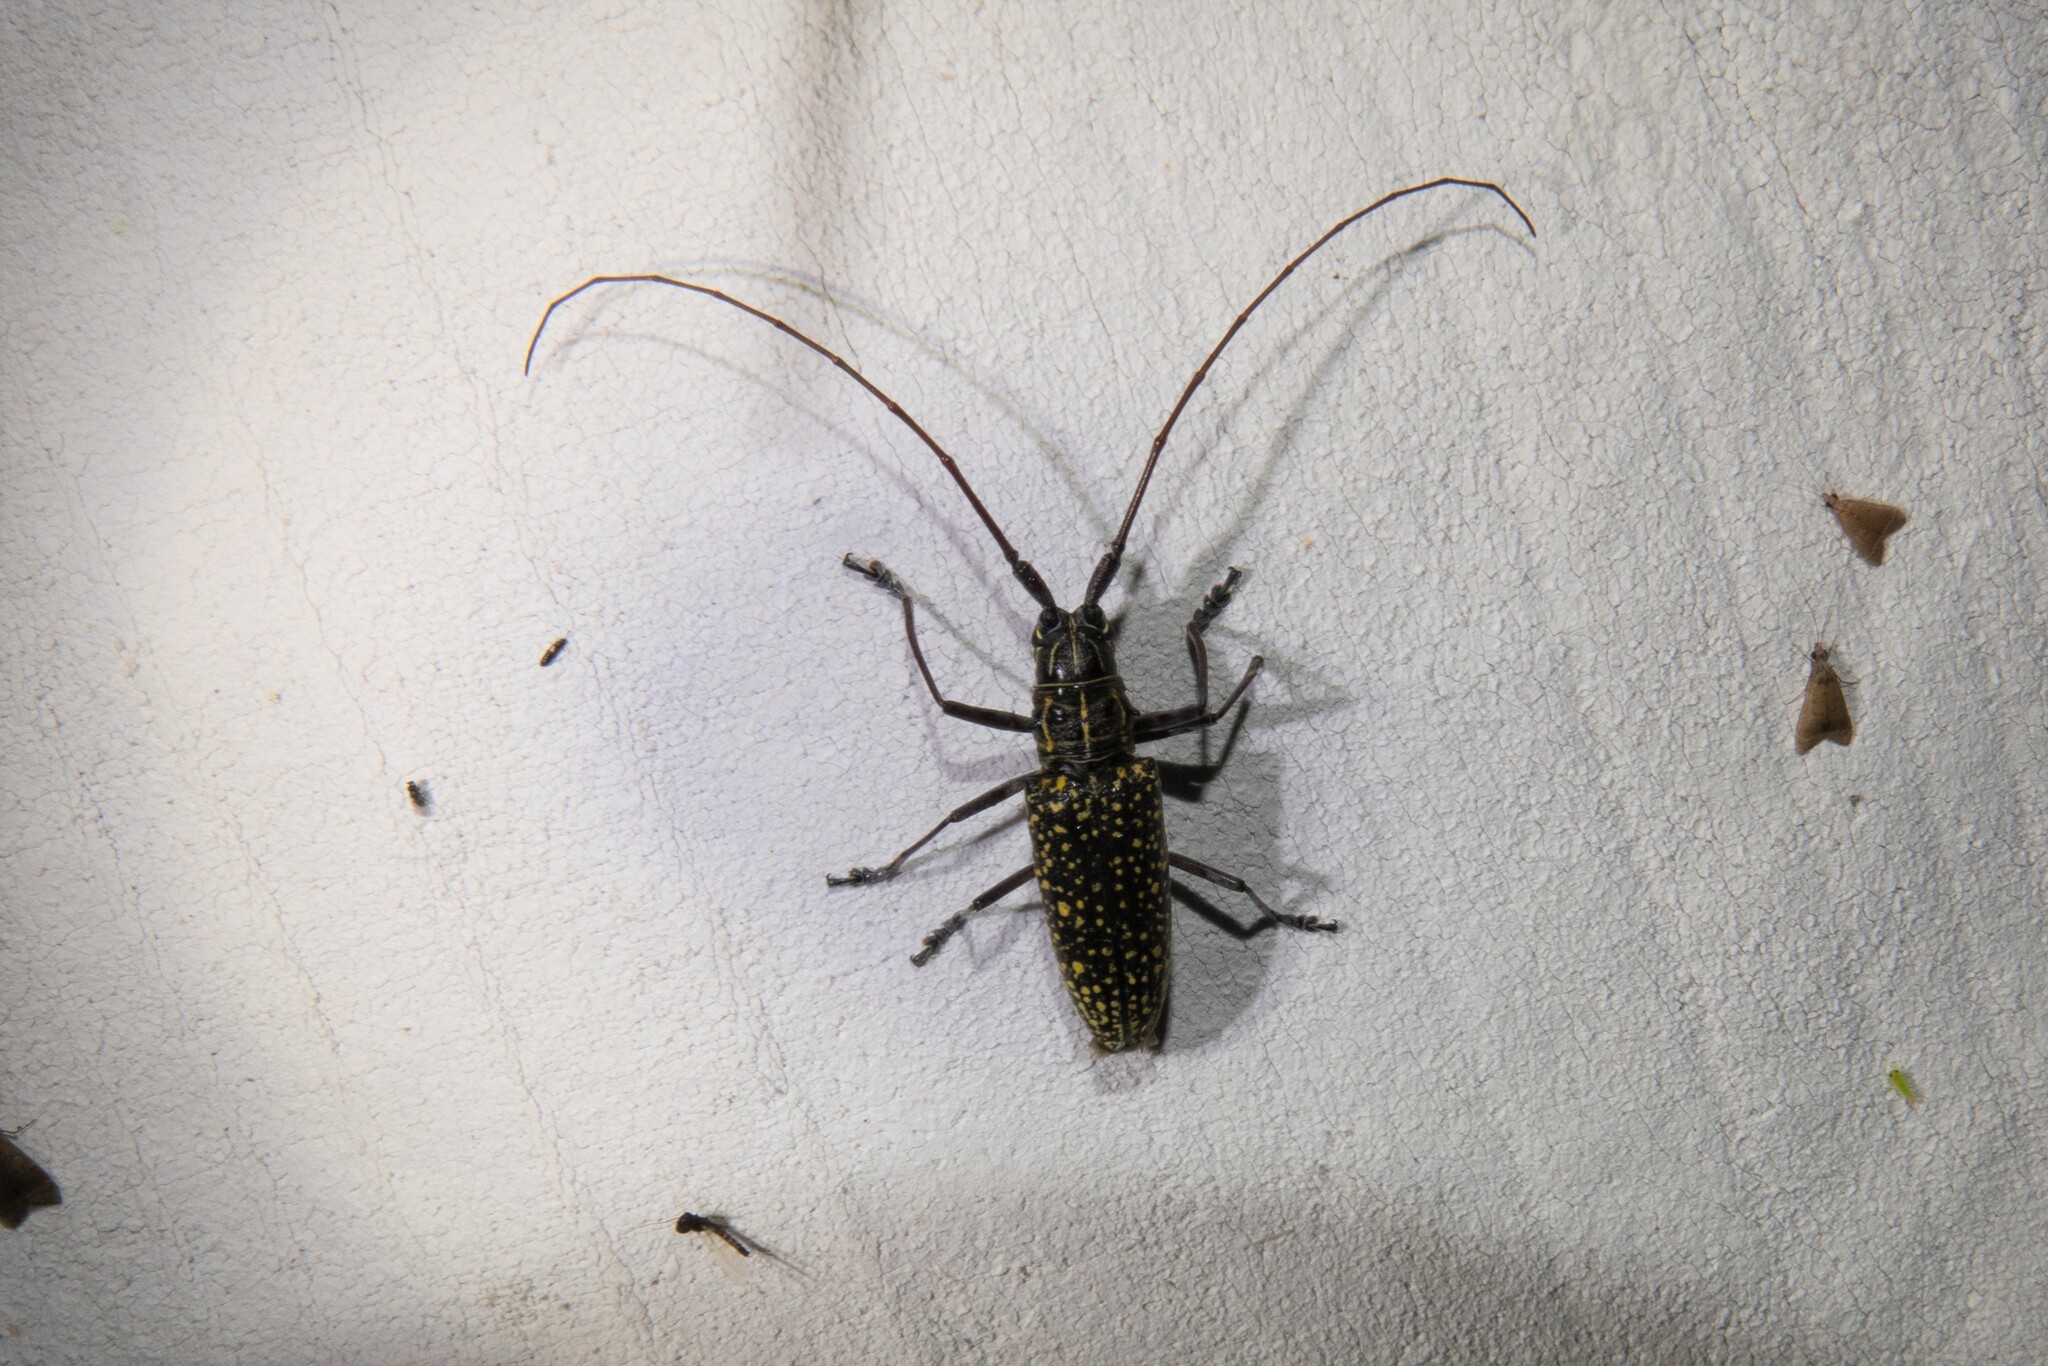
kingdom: Animalia
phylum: Arthropoda
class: Insecta
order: Coleoptera
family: Cerambycidae
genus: Taeniotes
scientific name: Taeniotes pulverulentus
